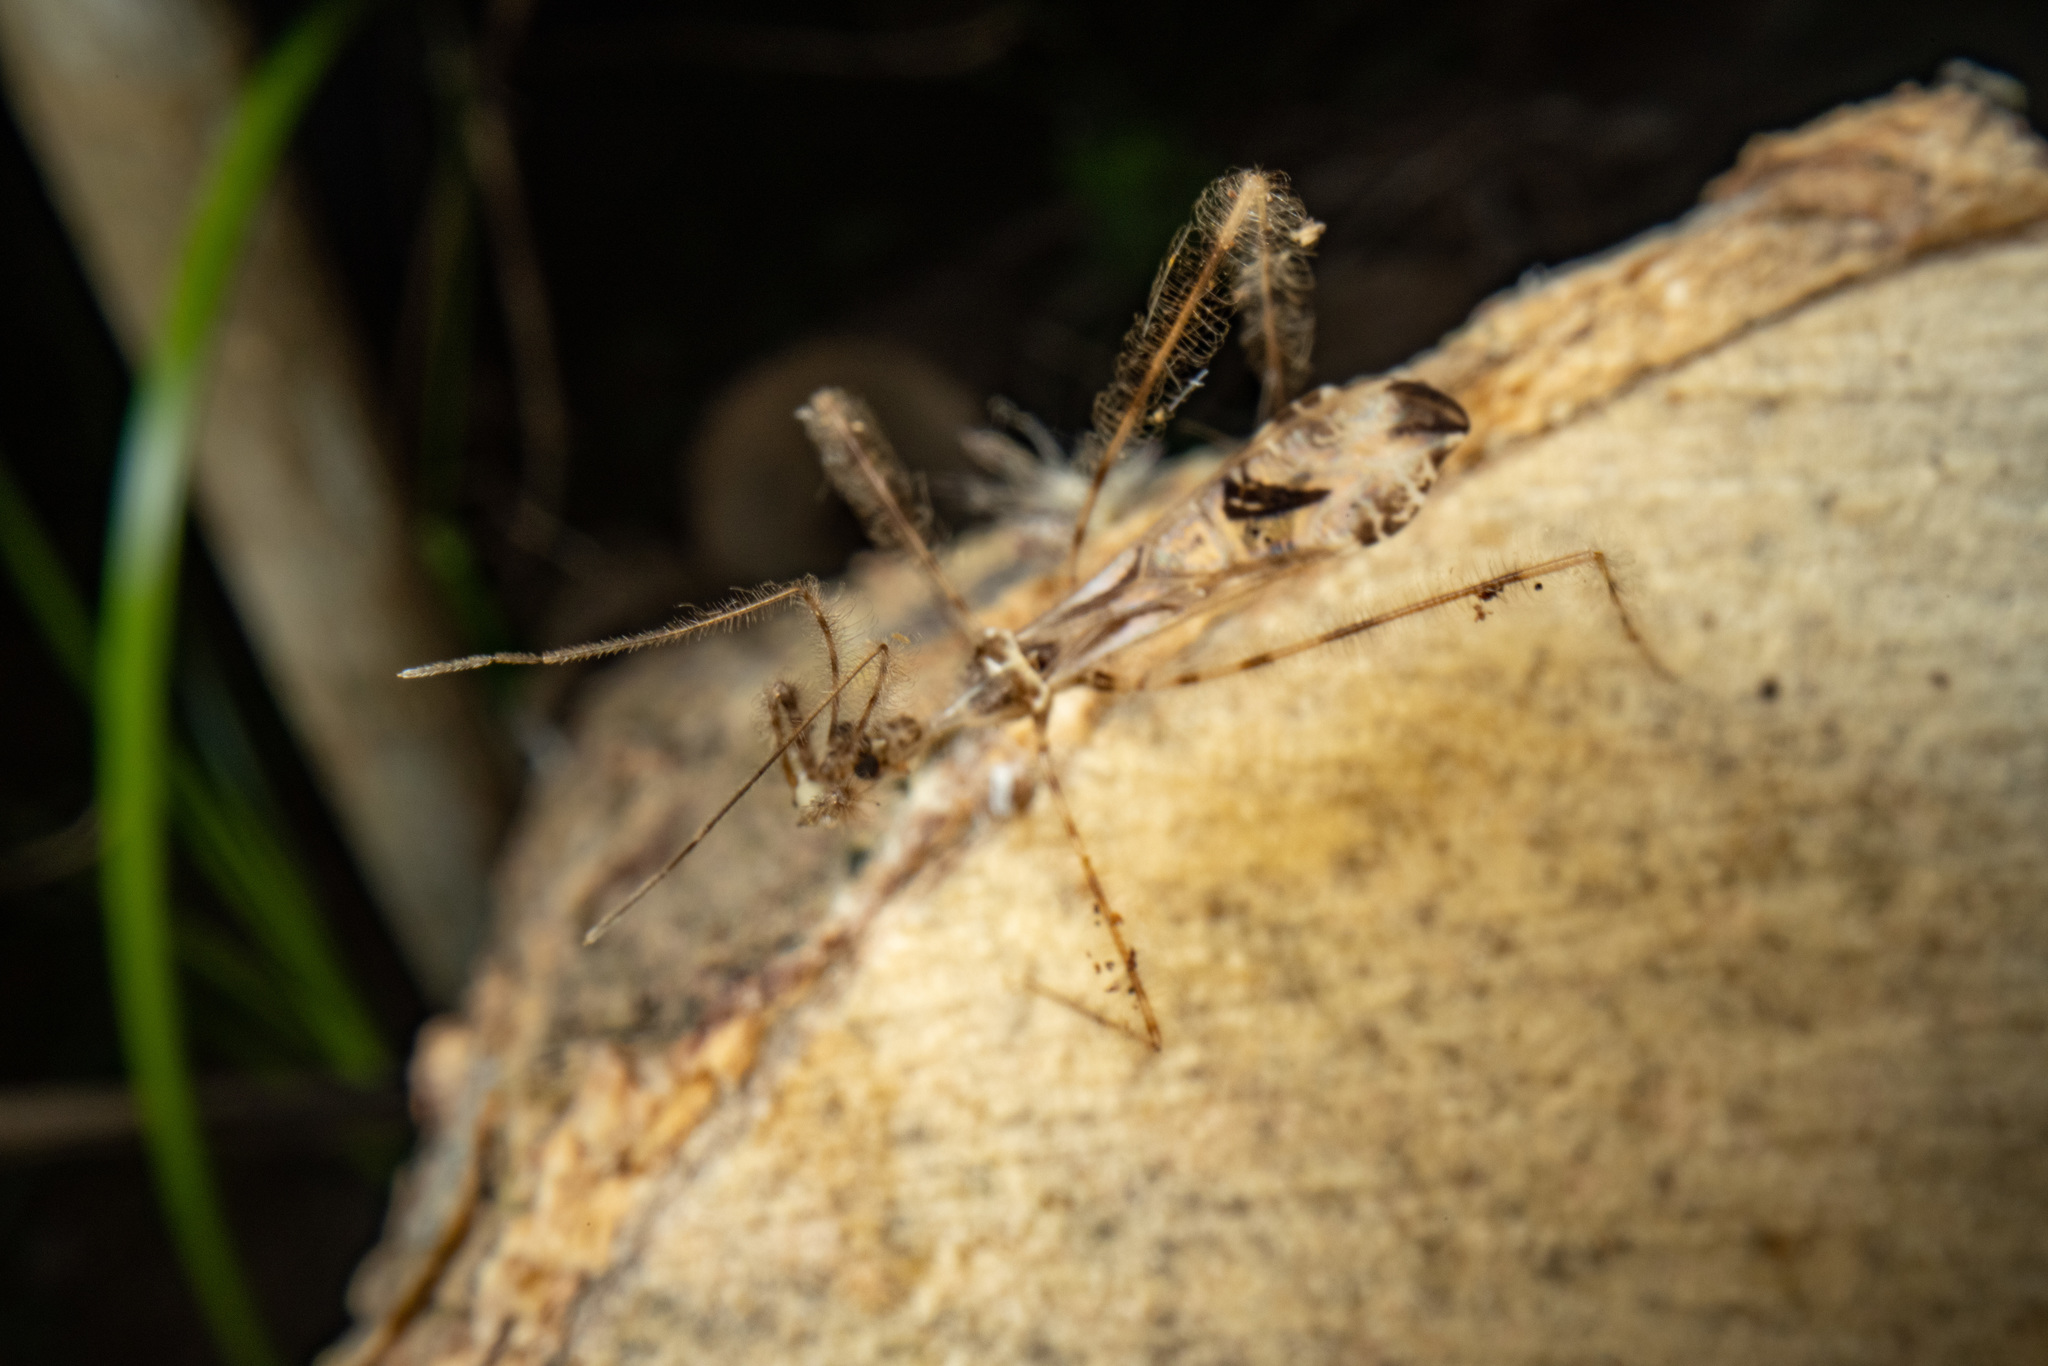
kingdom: Animalia
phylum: Arthropoda
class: Insecta
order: Hemiptera
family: Reduviidae
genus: Stenolemus
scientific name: Stenolemus fraterculus
